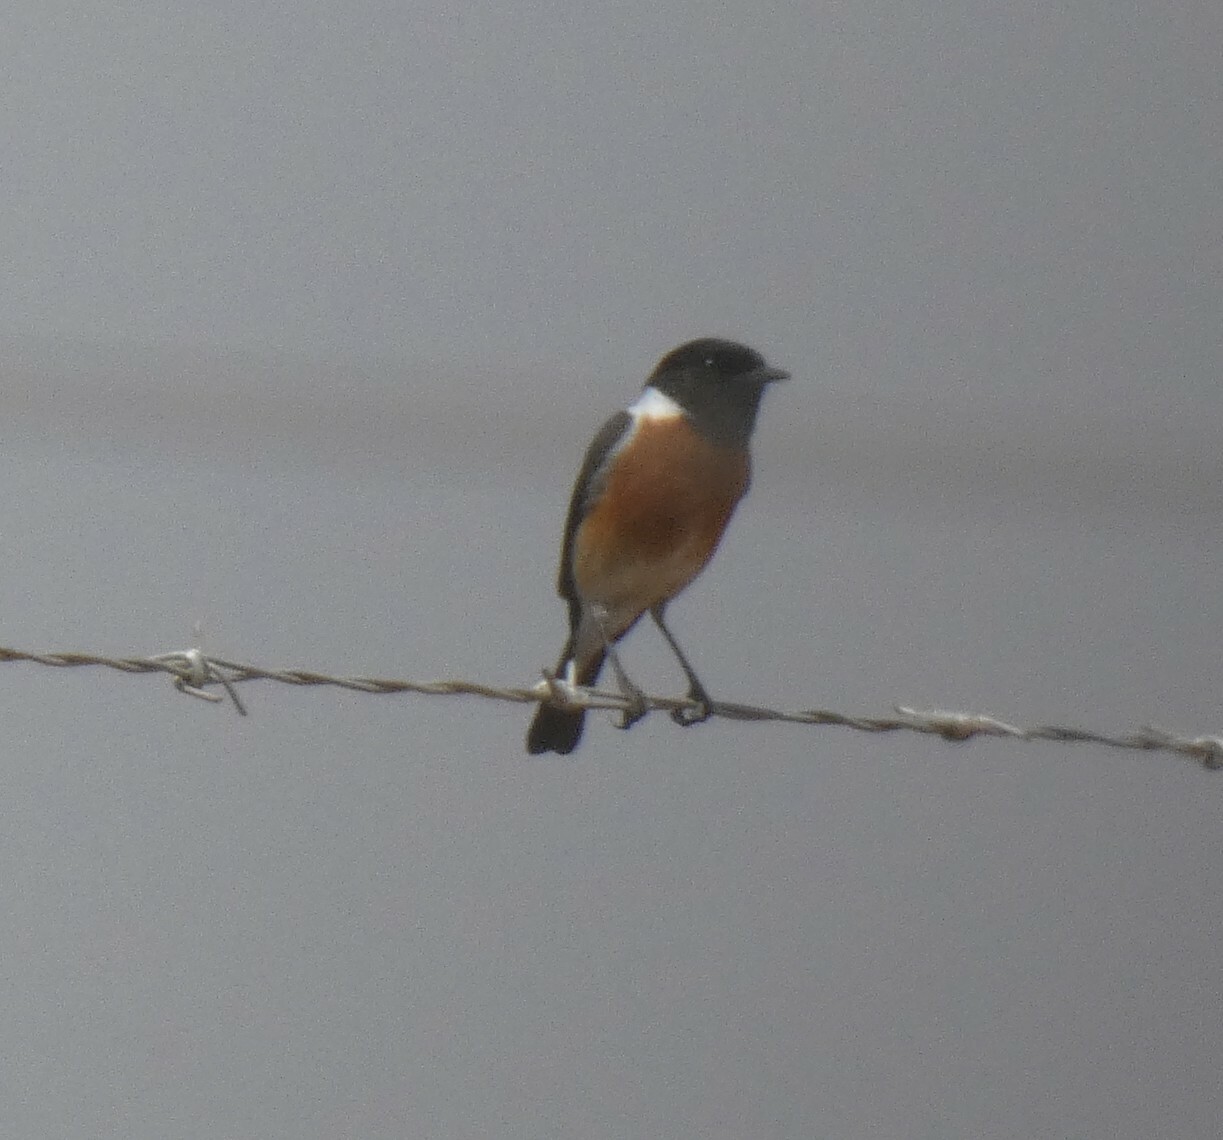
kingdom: Animalia
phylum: Chordata
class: Aves
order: Passeriformes
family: Muscicapidae
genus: Saxicola
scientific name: Saxicola torquatus
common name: African stonechat
